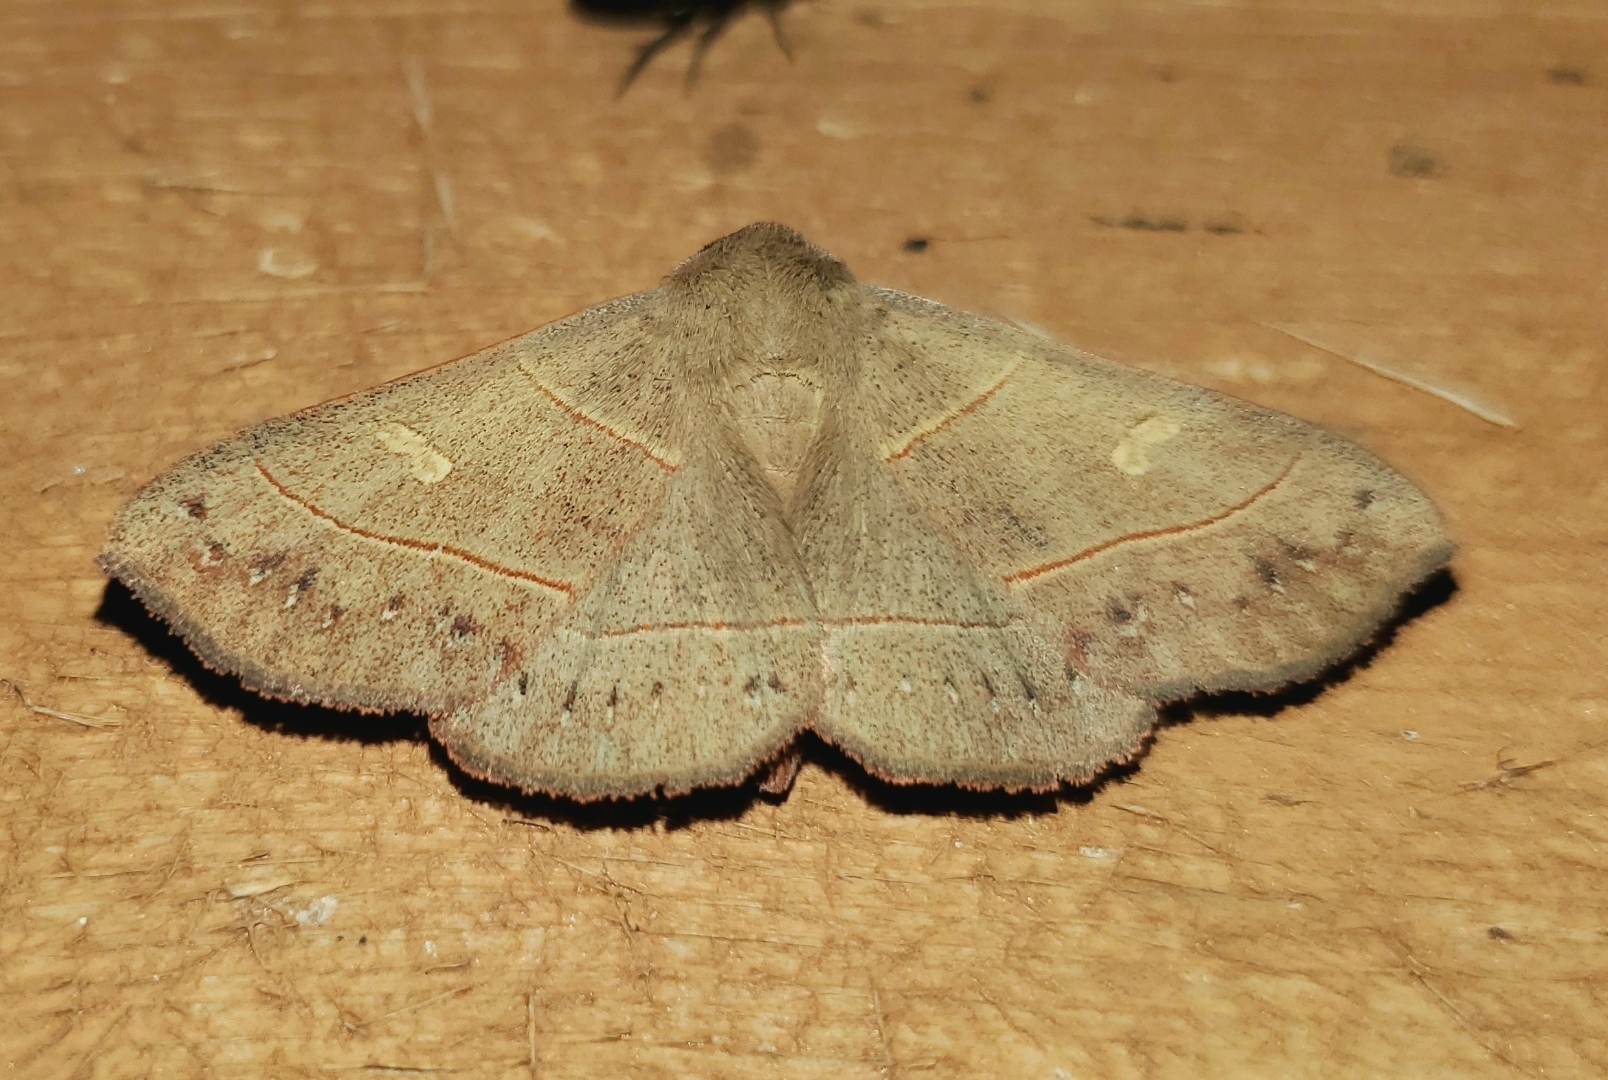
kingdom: Animalia
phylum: Arthropoda
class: Insecta
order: Lepidoptera
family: Erebidae
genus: Panopoda
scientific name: Panopoda rufimargo
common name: Red-lined panopoda moth
